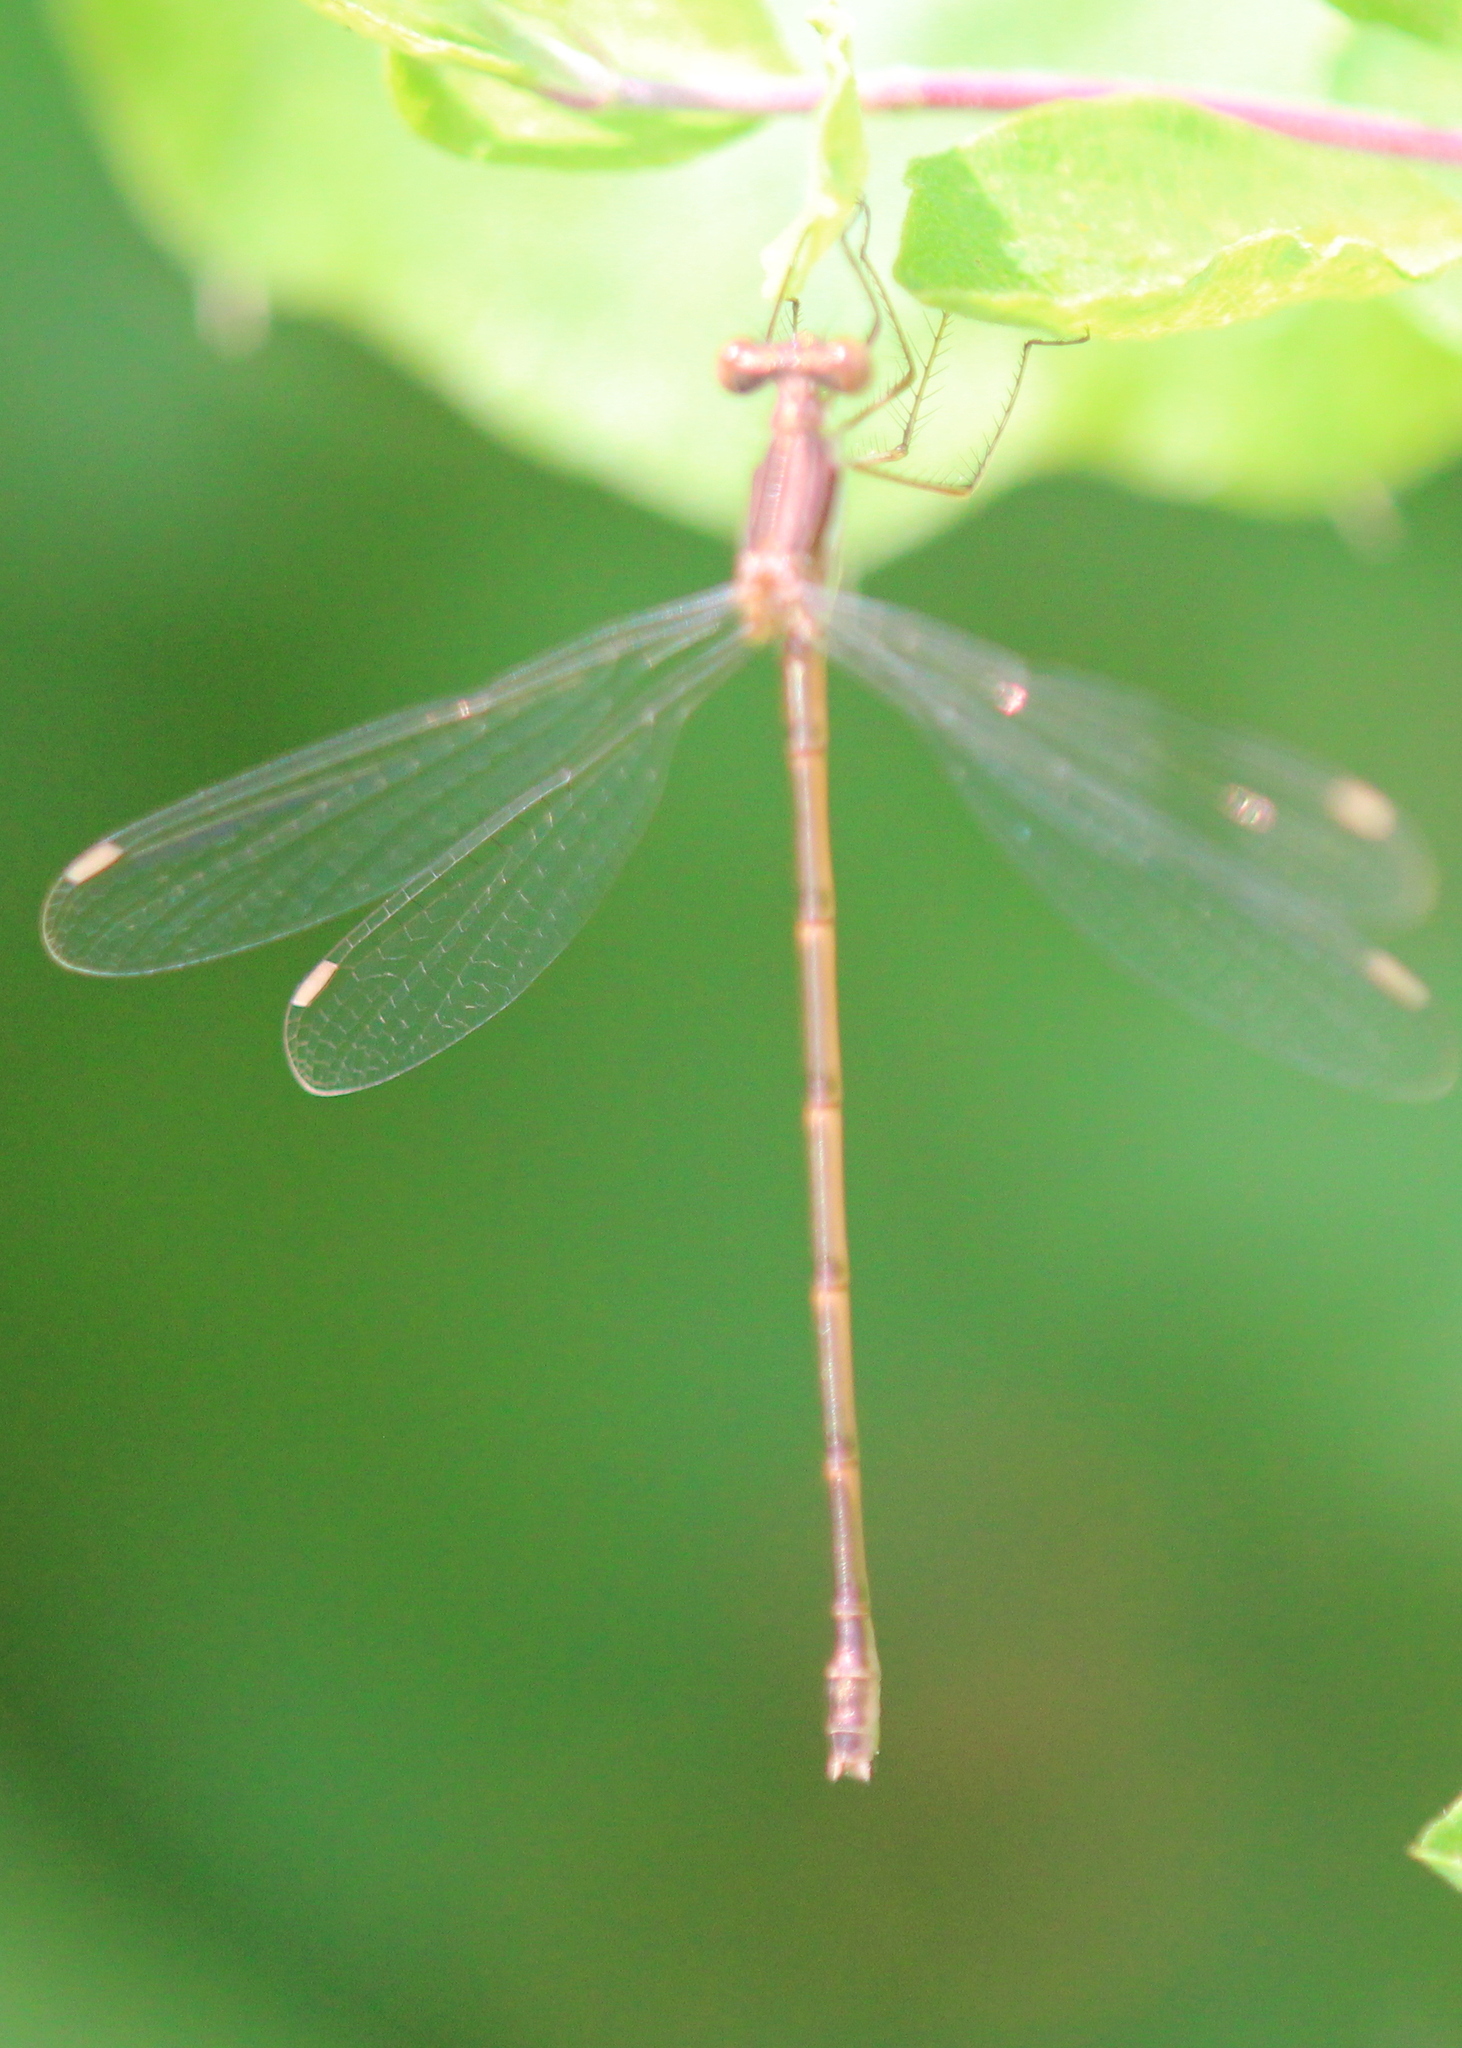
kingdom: Animalia
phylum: Arthropoda
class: Insecta
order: Odonata
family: Lestidae
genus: Lestes
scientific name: Lestes rectangularis
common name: Slender spreadwing
